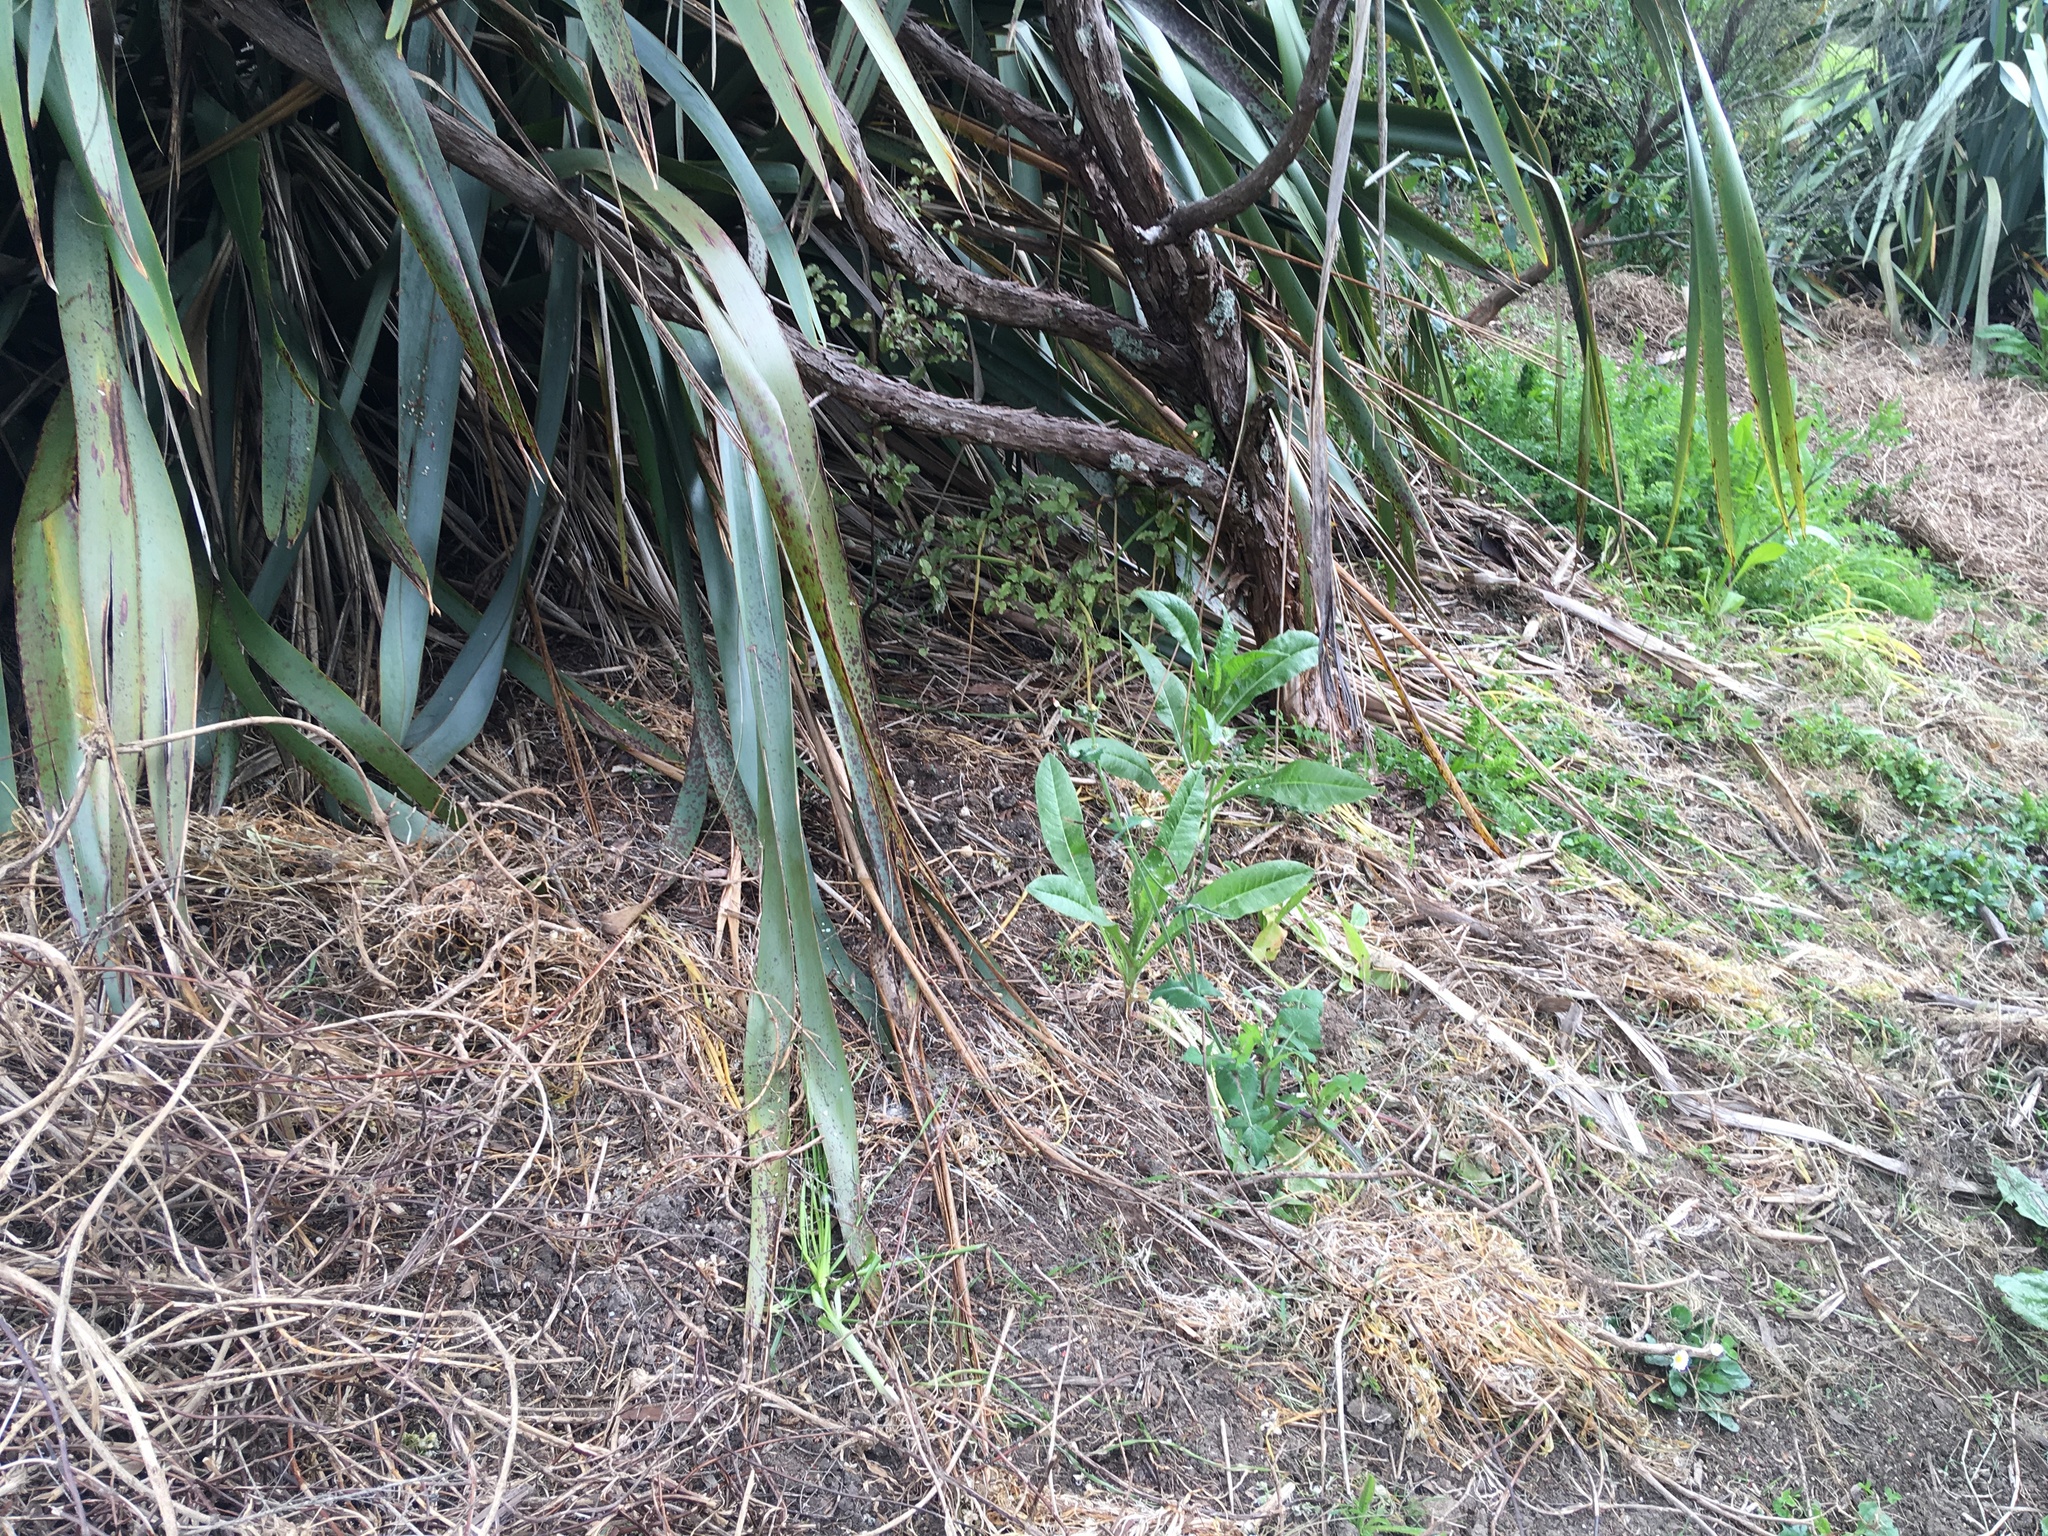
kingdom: Plantae
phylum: Tracheophyta
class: Magnoliopsida
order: Asterales
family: Asteraceae
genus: Helminthotheca
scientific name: Helminthotheca echioides
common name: Ox-tongue
